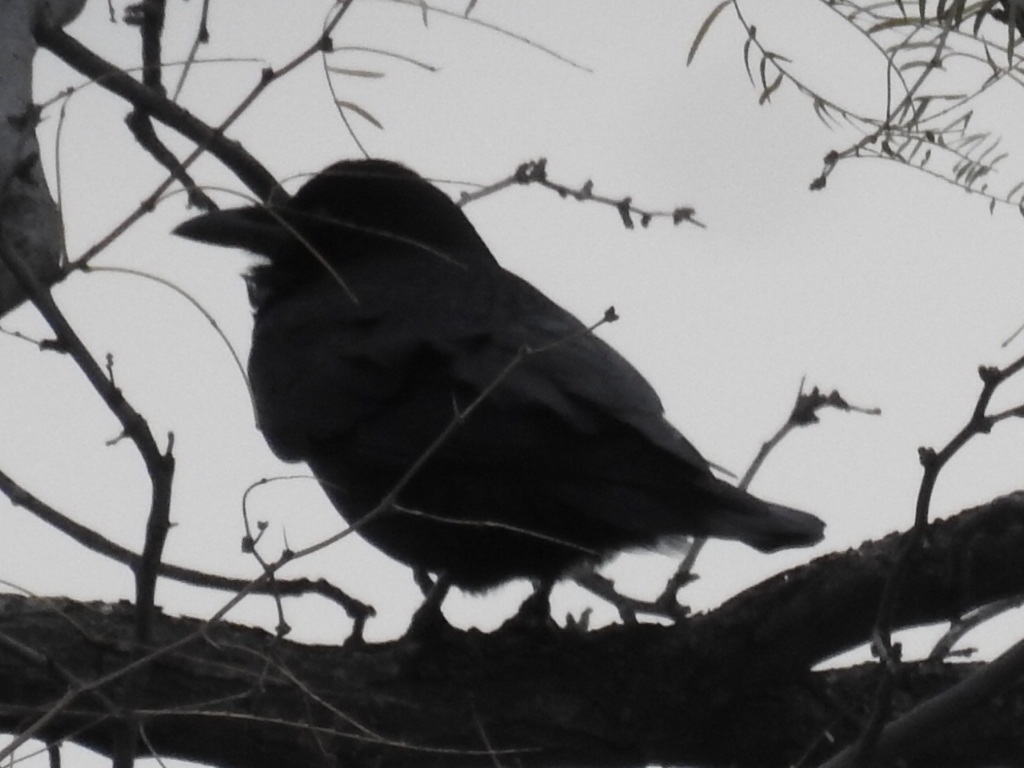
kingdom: Animalia
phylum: Chordata
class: Aves
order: Passeriformes
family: Corvidae
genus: Corvus
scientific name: Corvus brachyrhynchos
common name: American crow
